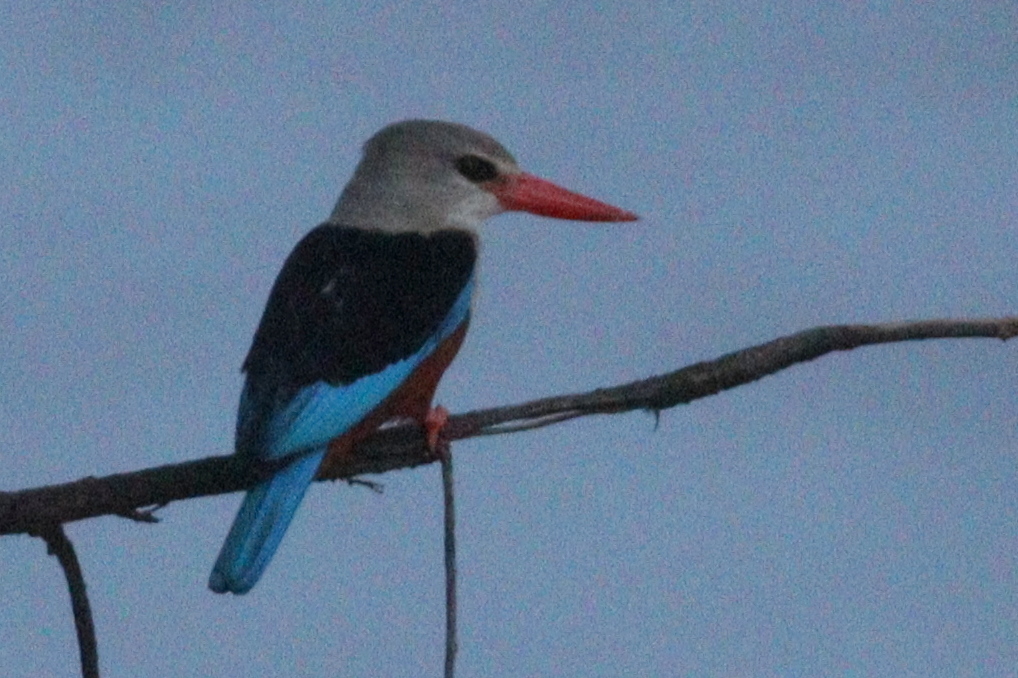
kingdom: Animalia
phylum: Chordata
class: Aves
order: Coraciiformes
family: Alcedinidae
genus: Halcyon
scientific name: Halcyon leucocephala
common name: Grey-headed kingfisher
